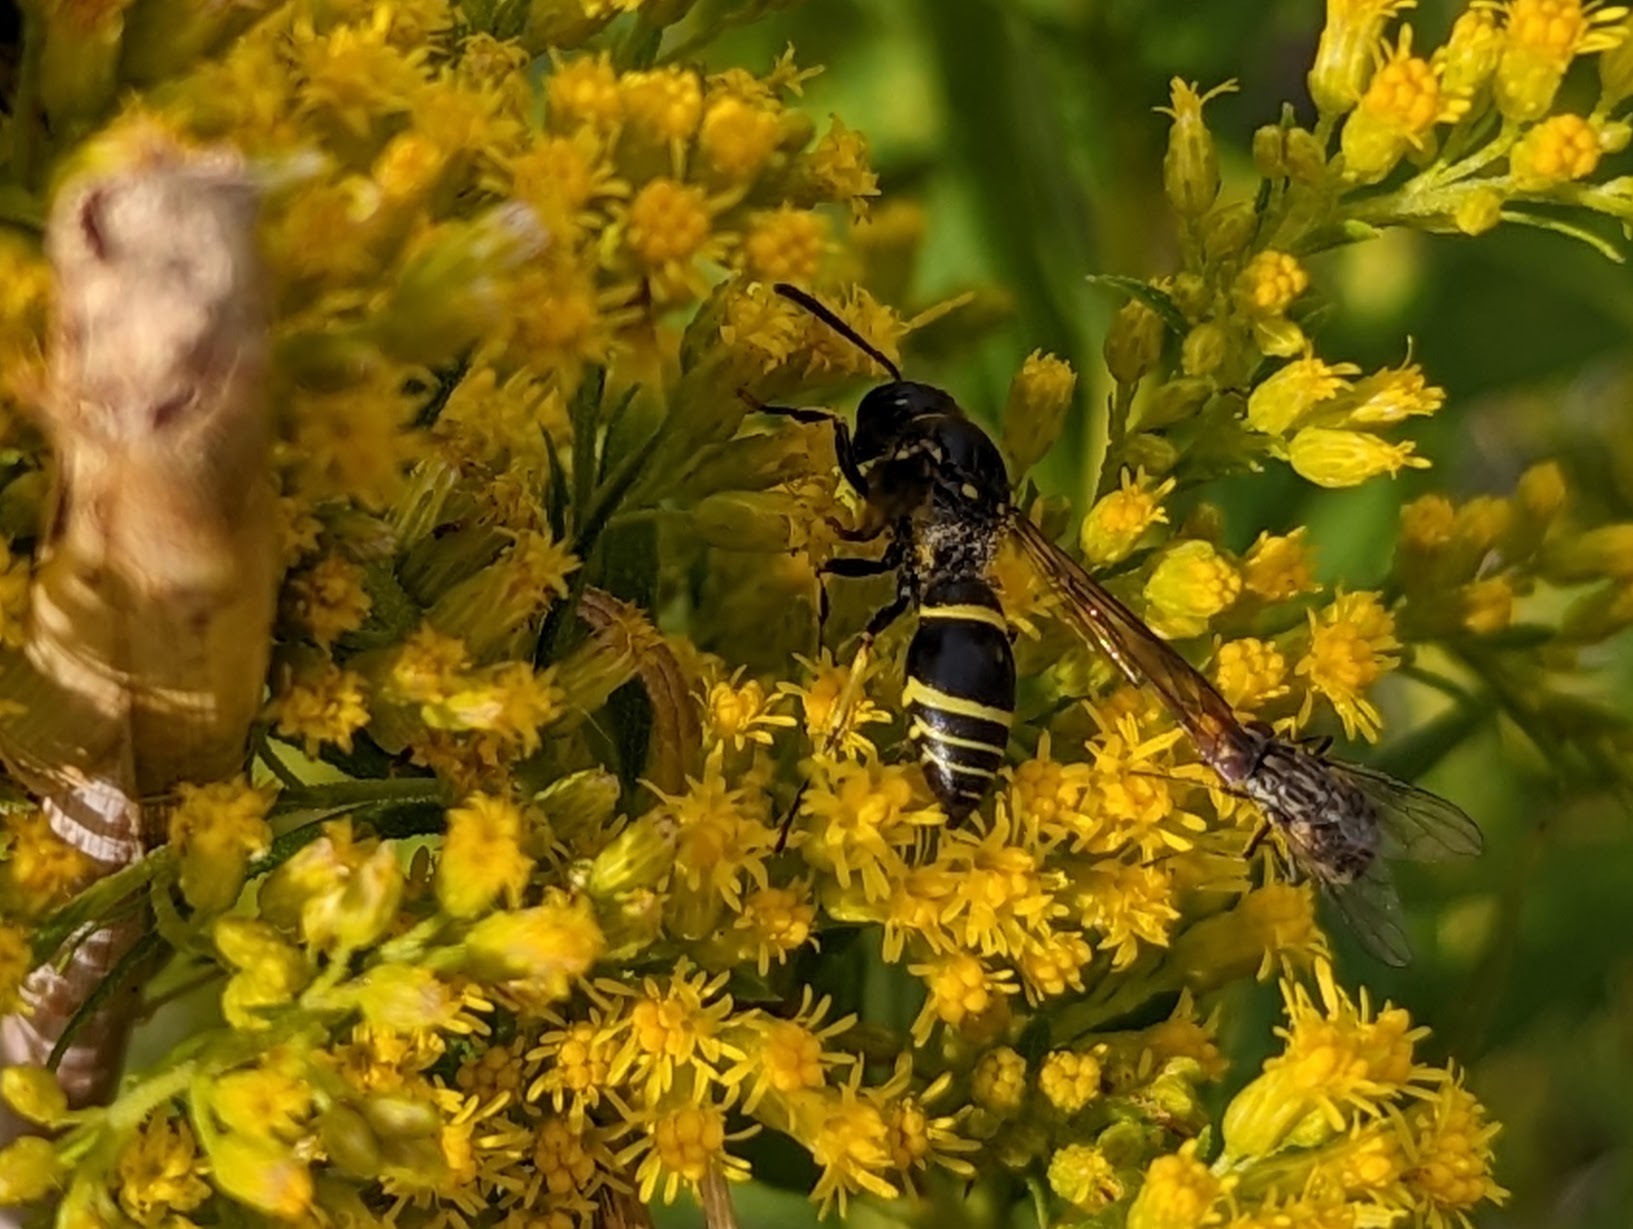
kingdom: Animalia
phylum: Arthropoda
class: Insecta
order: Hymenoptera
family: Vespidae
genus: Ancistrocerus
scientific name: Ancistrocerus
